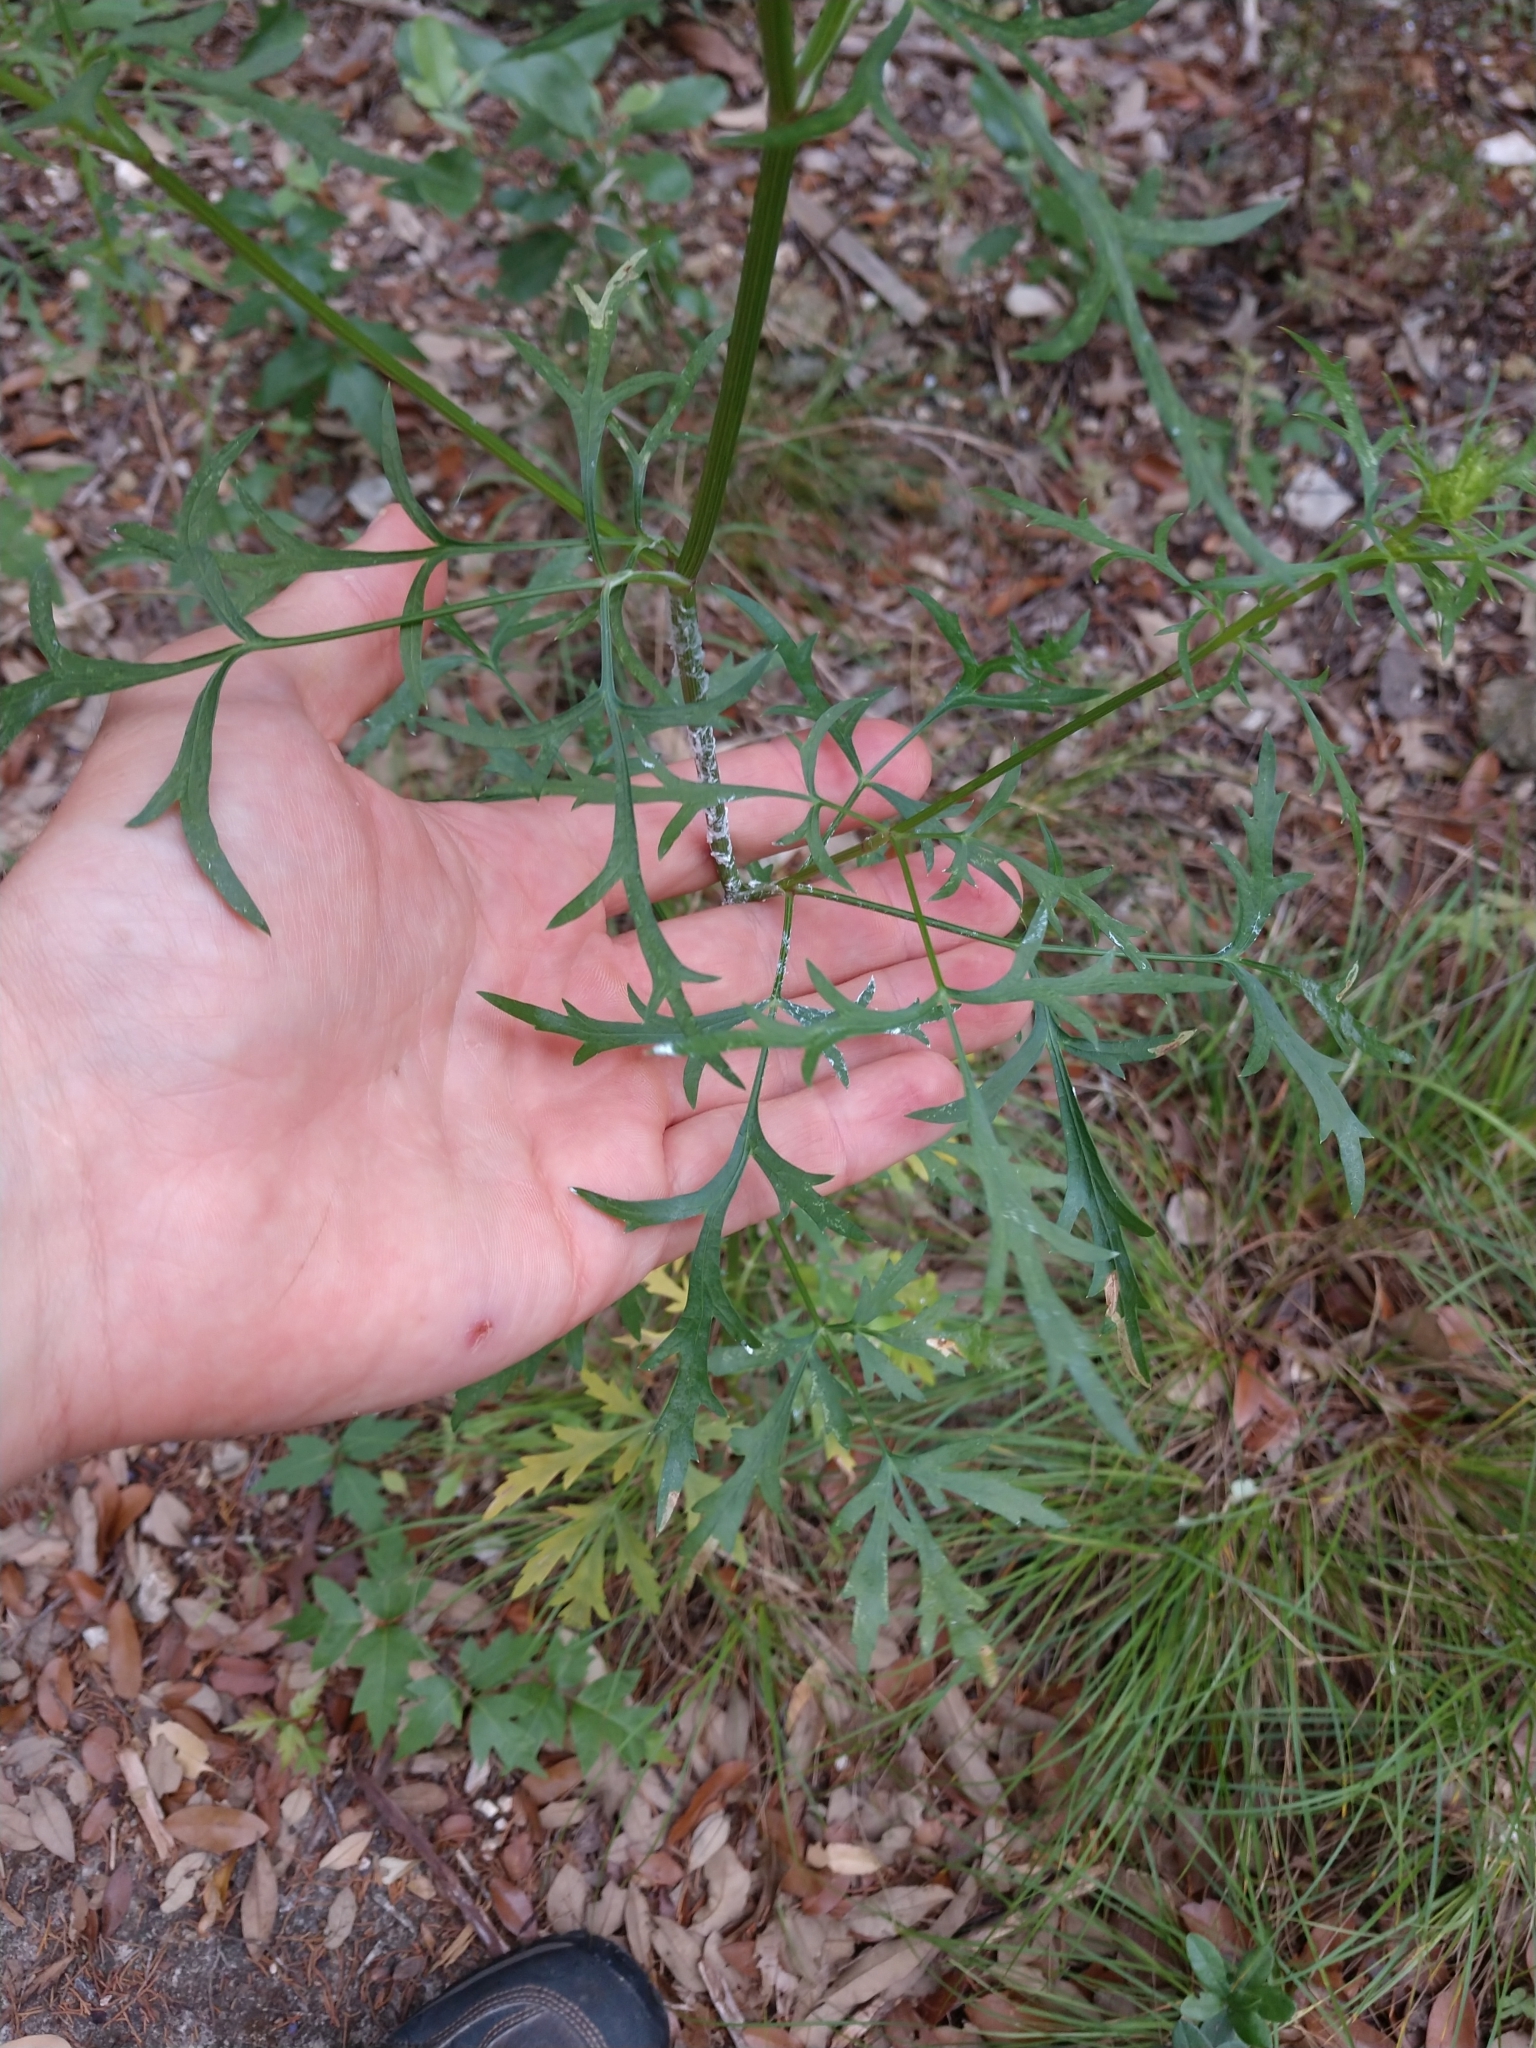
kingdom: Plantae
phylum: Tracheophyta
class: Magnoliopsida
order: Apiales
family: Apiaceae
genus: Daucosma
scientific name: Daucosma laciniatum
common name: Meadow-parasol
